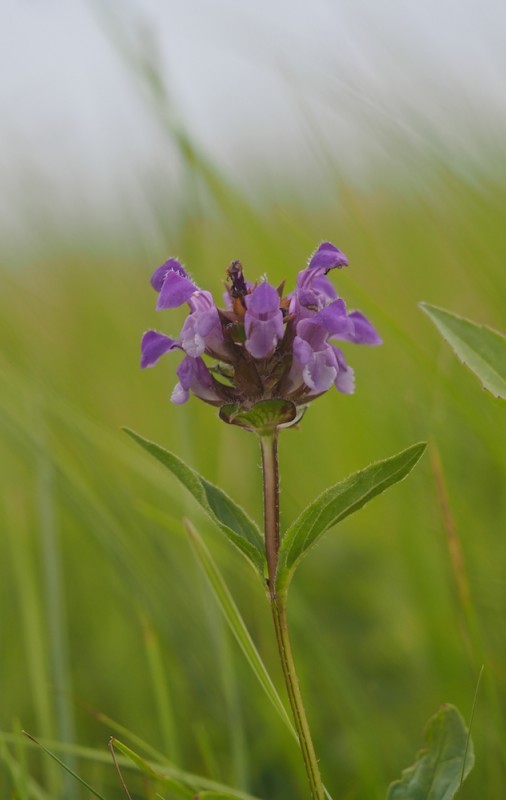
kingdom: Plantae
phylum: Tracheophyta
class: Magnoliopsida
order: Lamiales
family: Lamiaceae
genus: Prunella
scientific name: Prunella grandiflora
